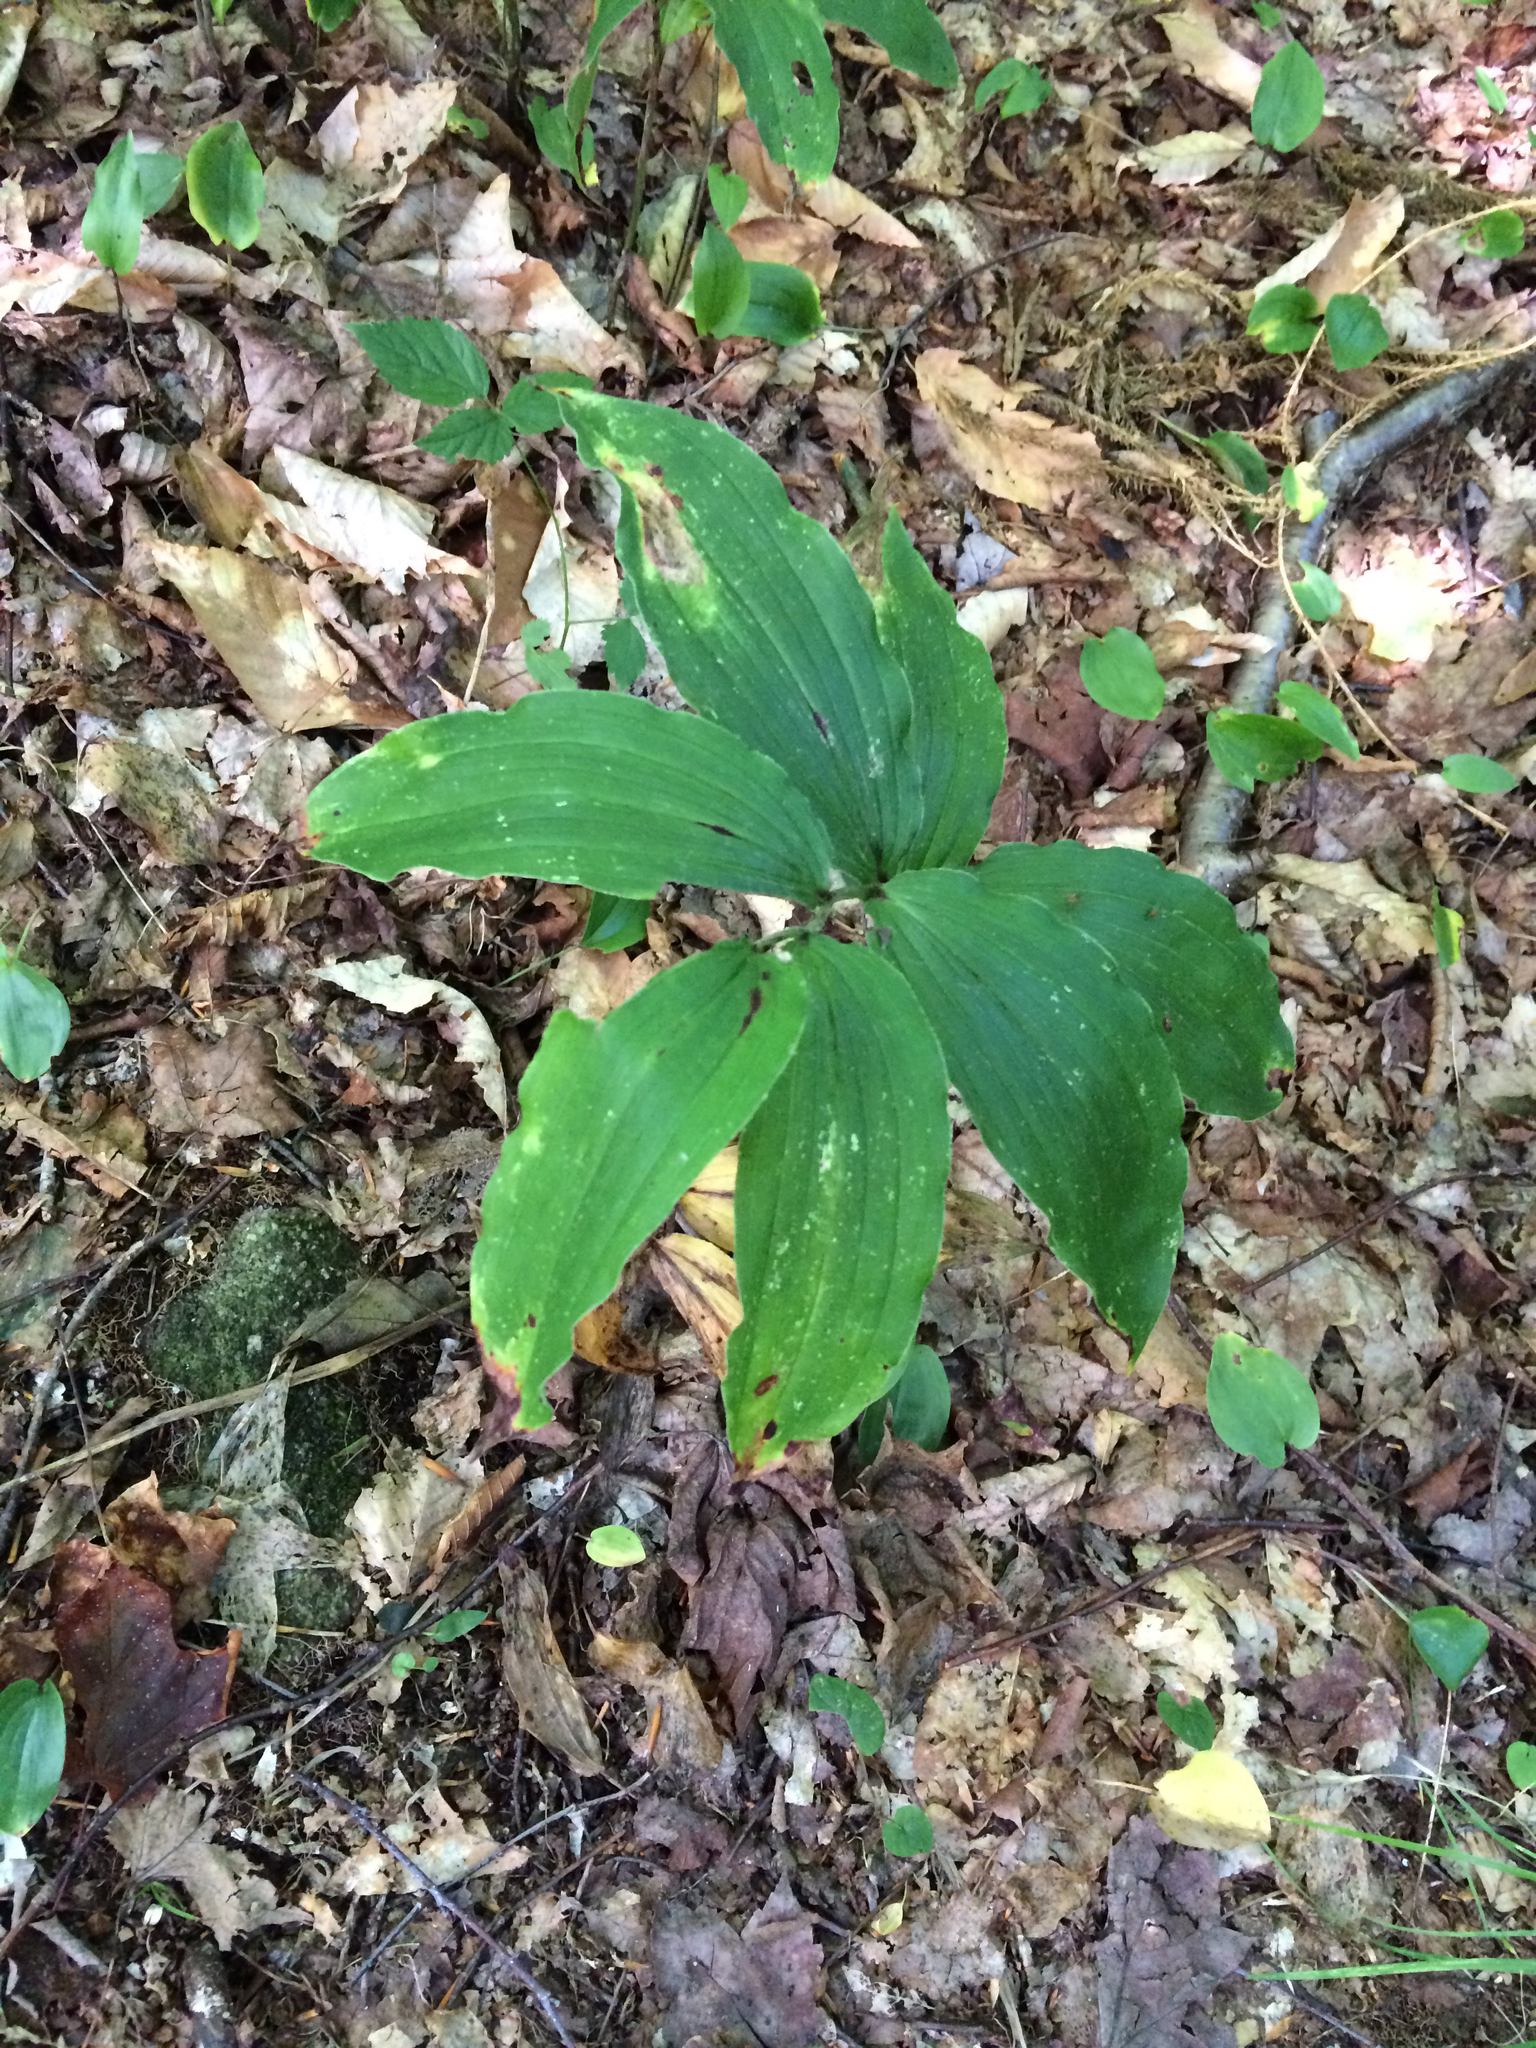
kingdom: Plantae
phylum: Tracheophyta
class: Liliopsida
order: Asparagales
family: Asparagaceae
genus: Maianthemum
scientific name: Maianthemum racemosum
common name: False spikenard
